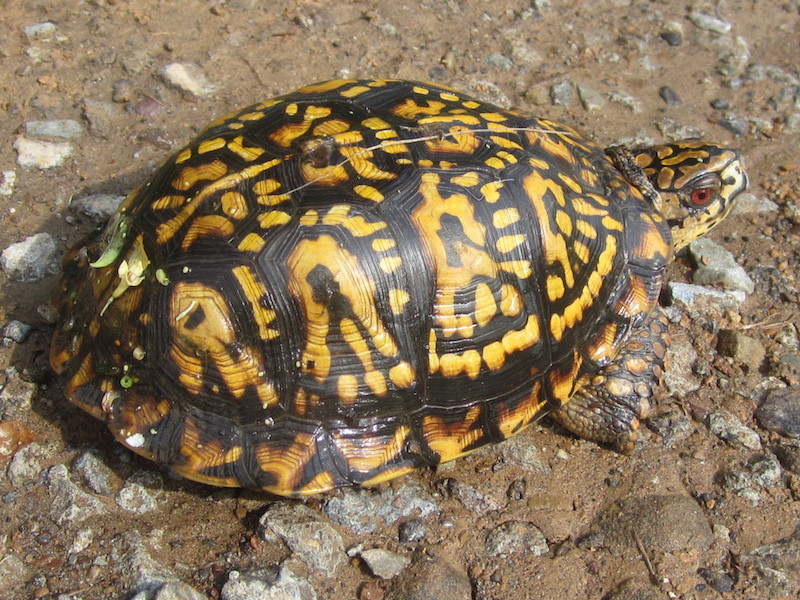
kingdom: Animalia
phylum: Chordata
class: Testudines
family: Emydidae
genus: Terrapene
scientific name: Terrapene carolina
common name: Common box turtle
